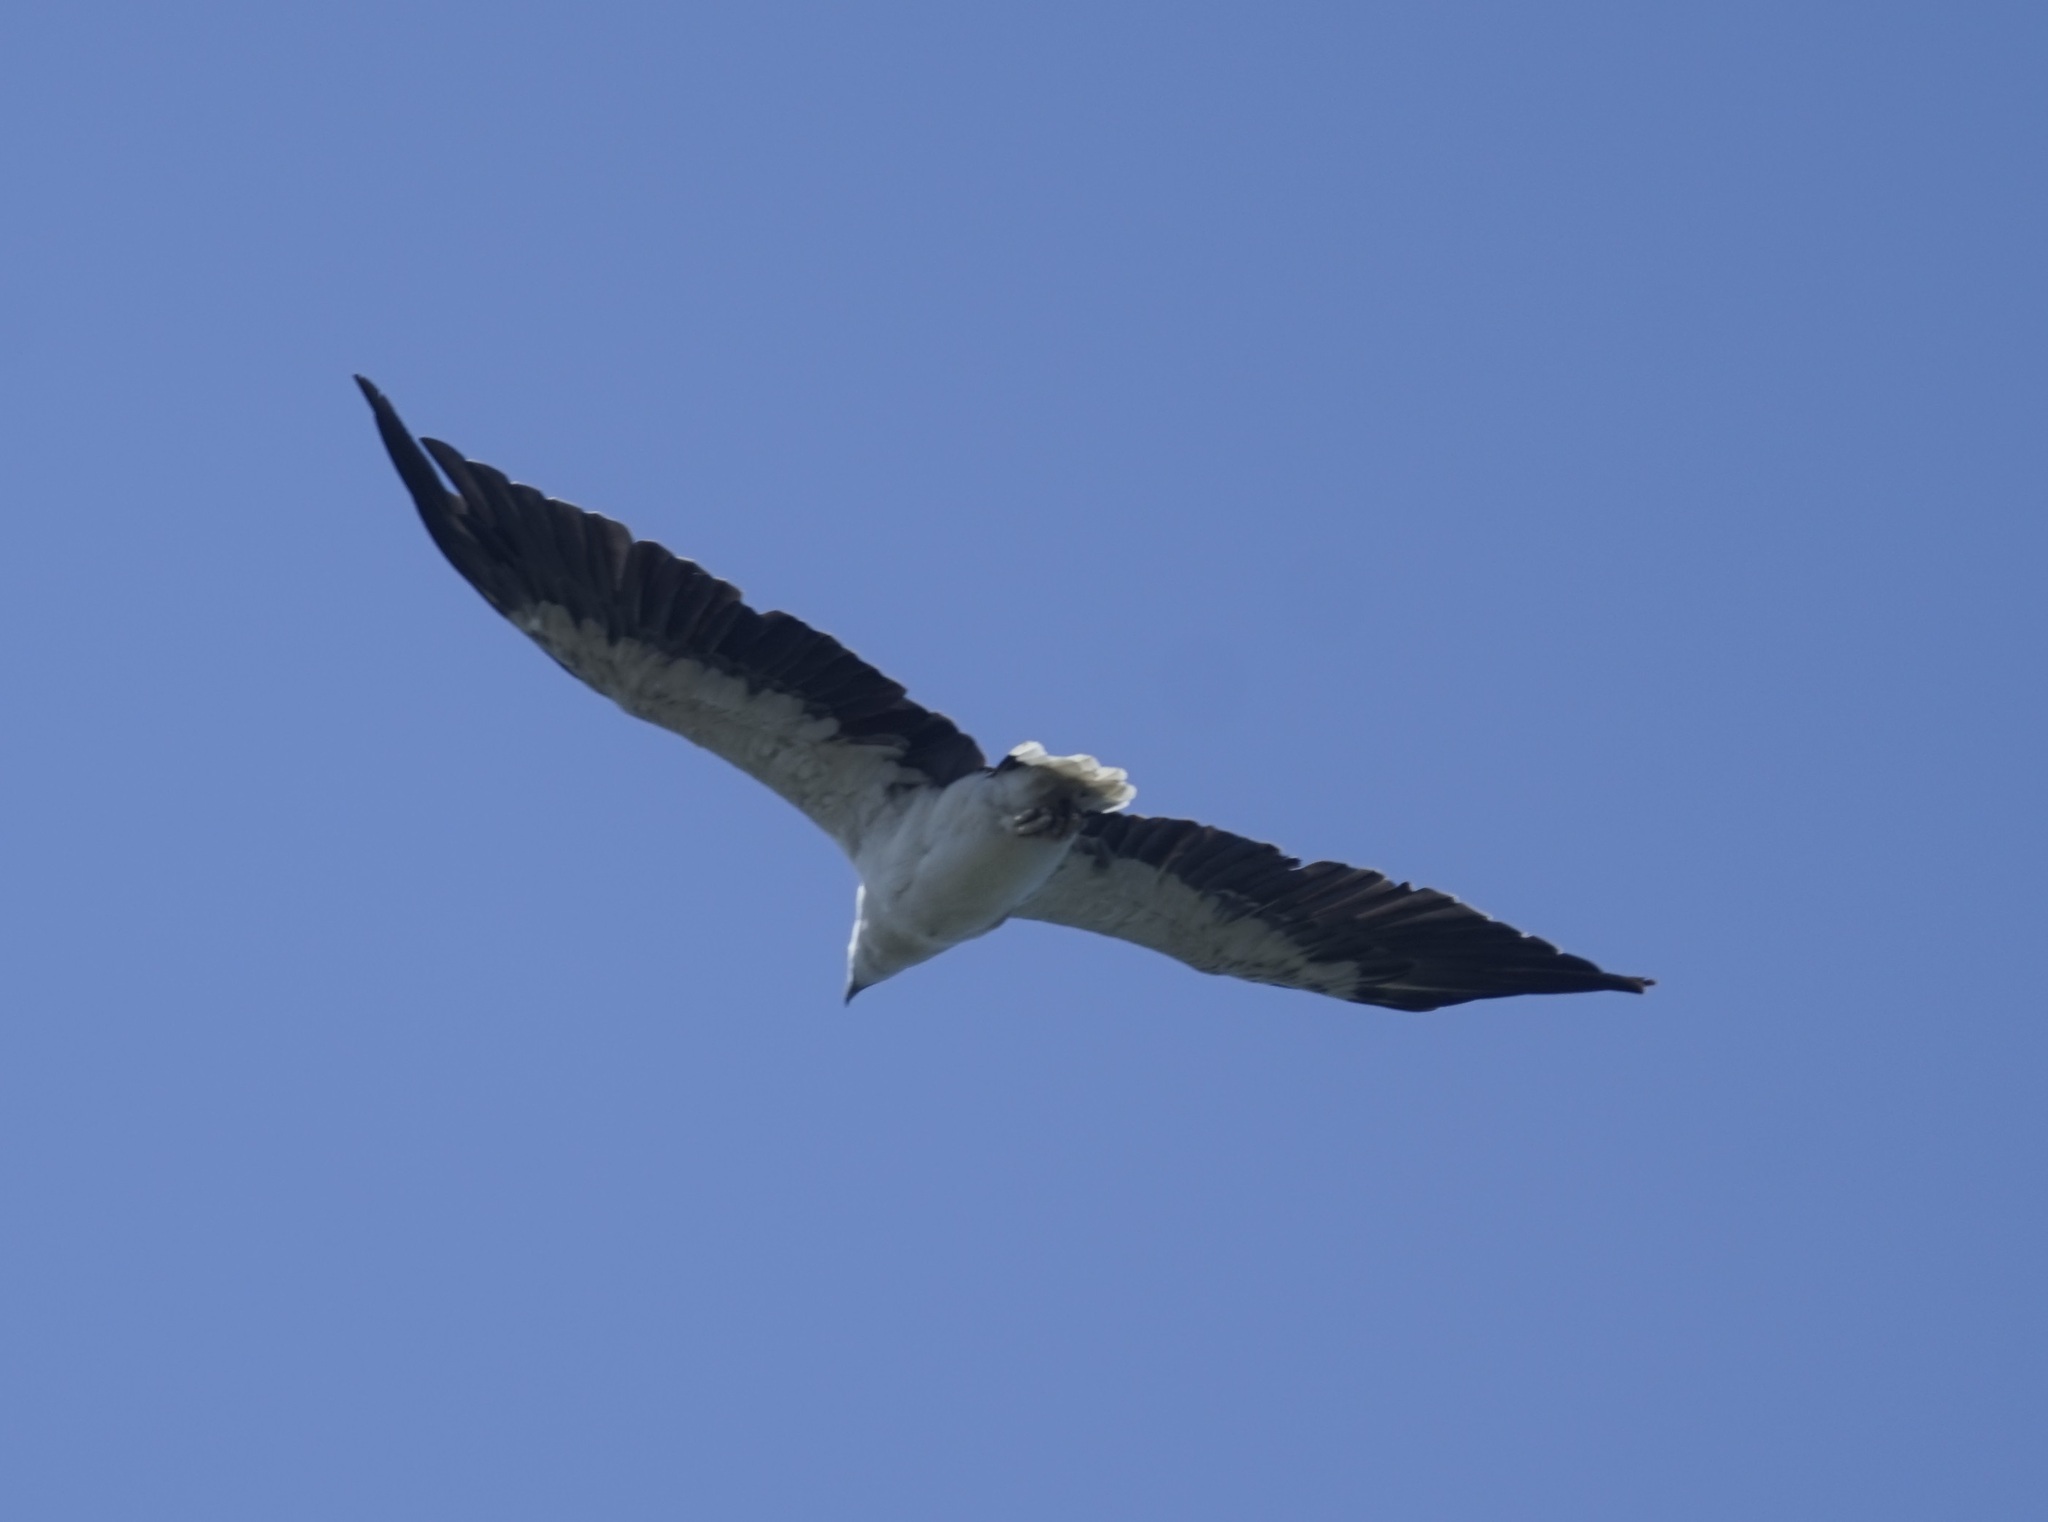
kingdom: Animalia
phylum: Chordata
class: Aves
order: Accipitriformes
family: Accipitridae
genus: Haliaeetus
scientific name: Haliaeetus leucogaster
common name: White-bellied sea eagle
